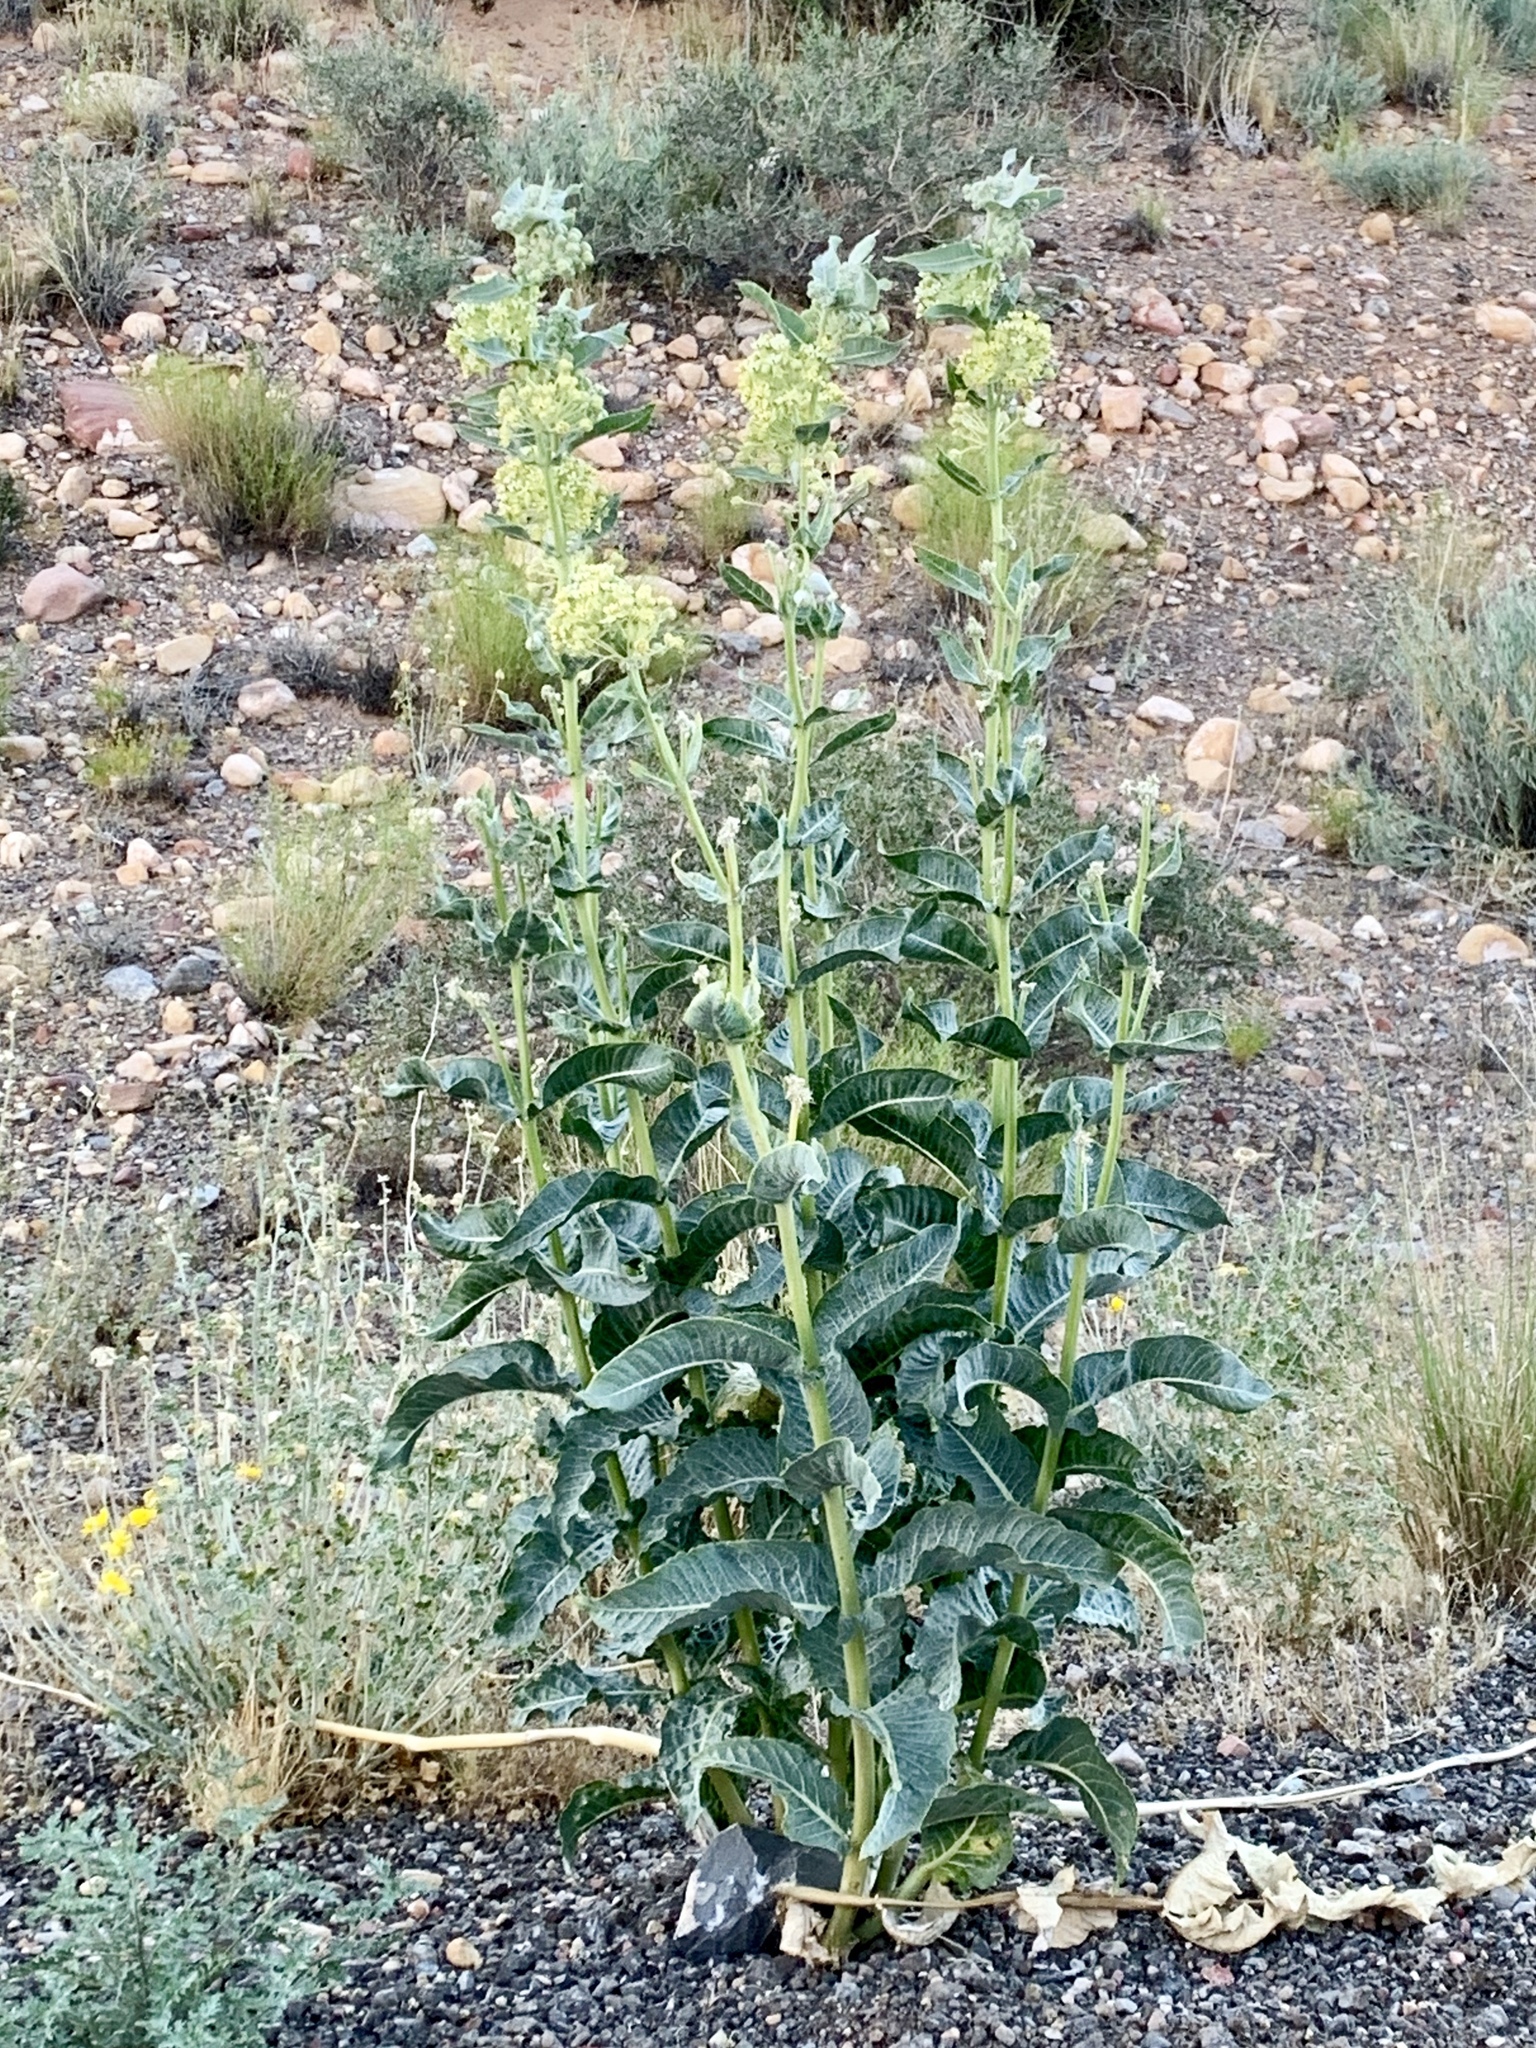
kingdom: Plantae
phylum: Tracheophyta
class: Magnoliopsida
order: Gentianales
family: Apocynaceae
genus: Asclepias
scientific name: Asclepias erosa
